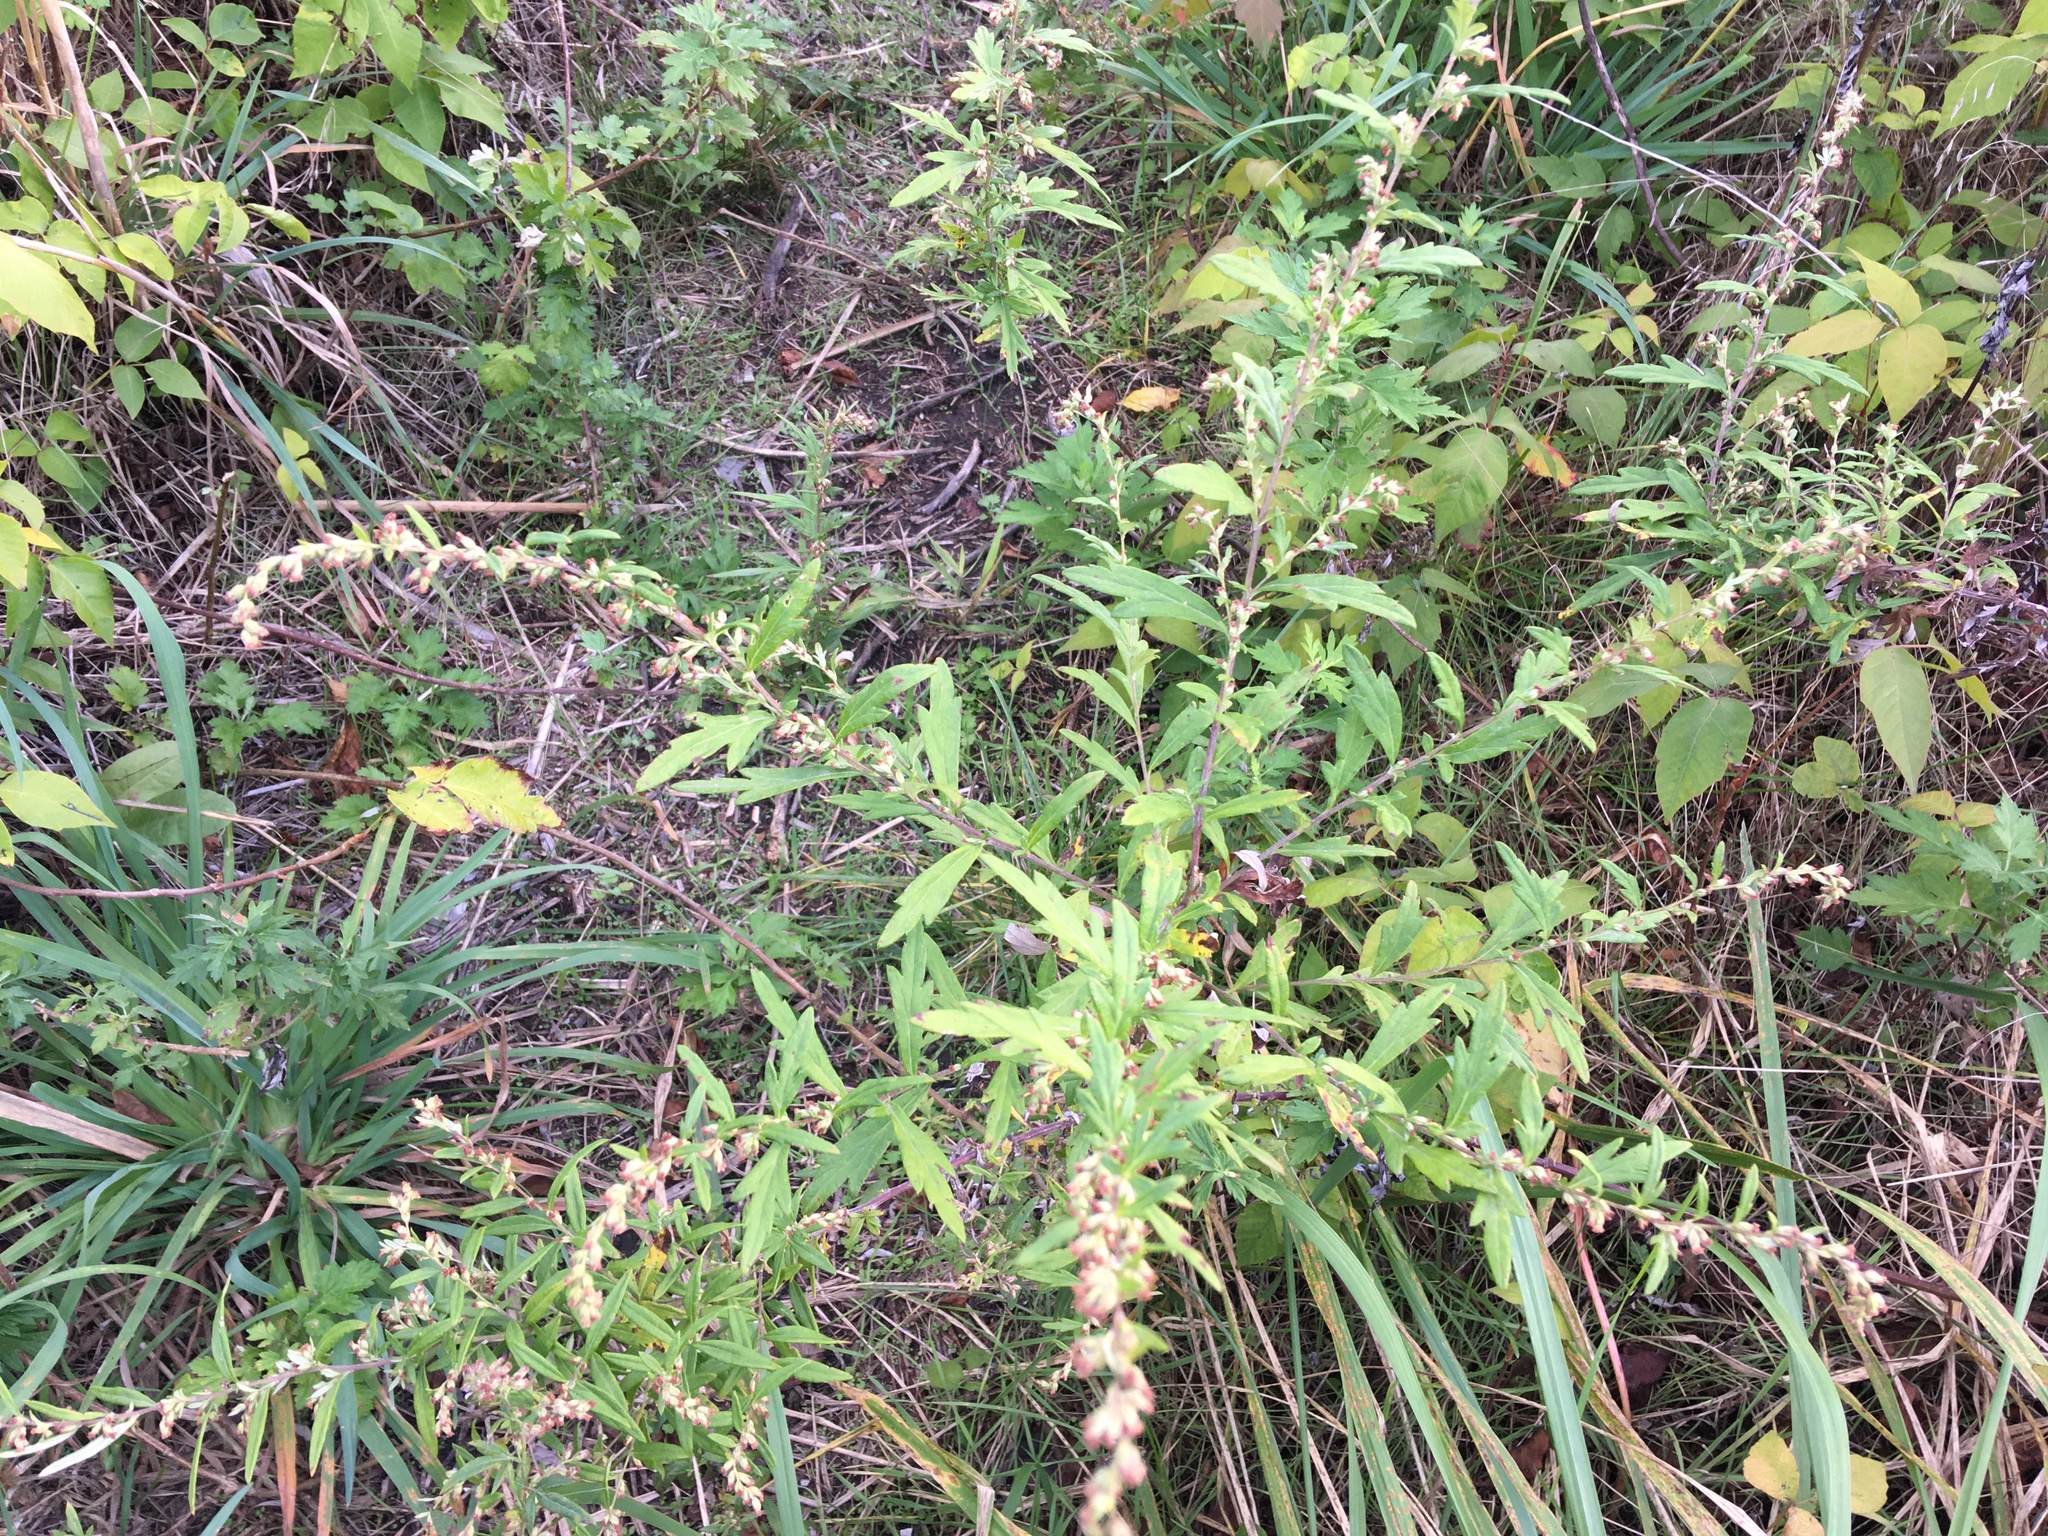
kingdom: Plantae
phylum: Tracheophyta
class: Magnoliopsida
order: Asterales
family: Asteraceae
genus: Artemisia
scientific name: Artemisia vulgaris
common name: Mugwort
